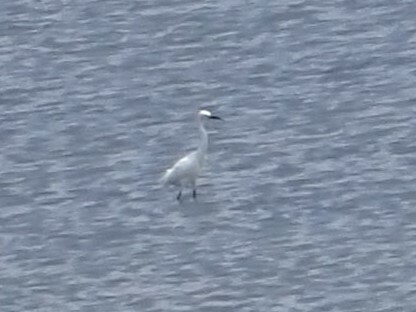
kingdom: Animalia
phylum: Chordata
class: Aves
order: Pelecaniformes
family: Ardeidae
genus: Egretta
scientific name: Egretta thula
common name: Snowy egret
